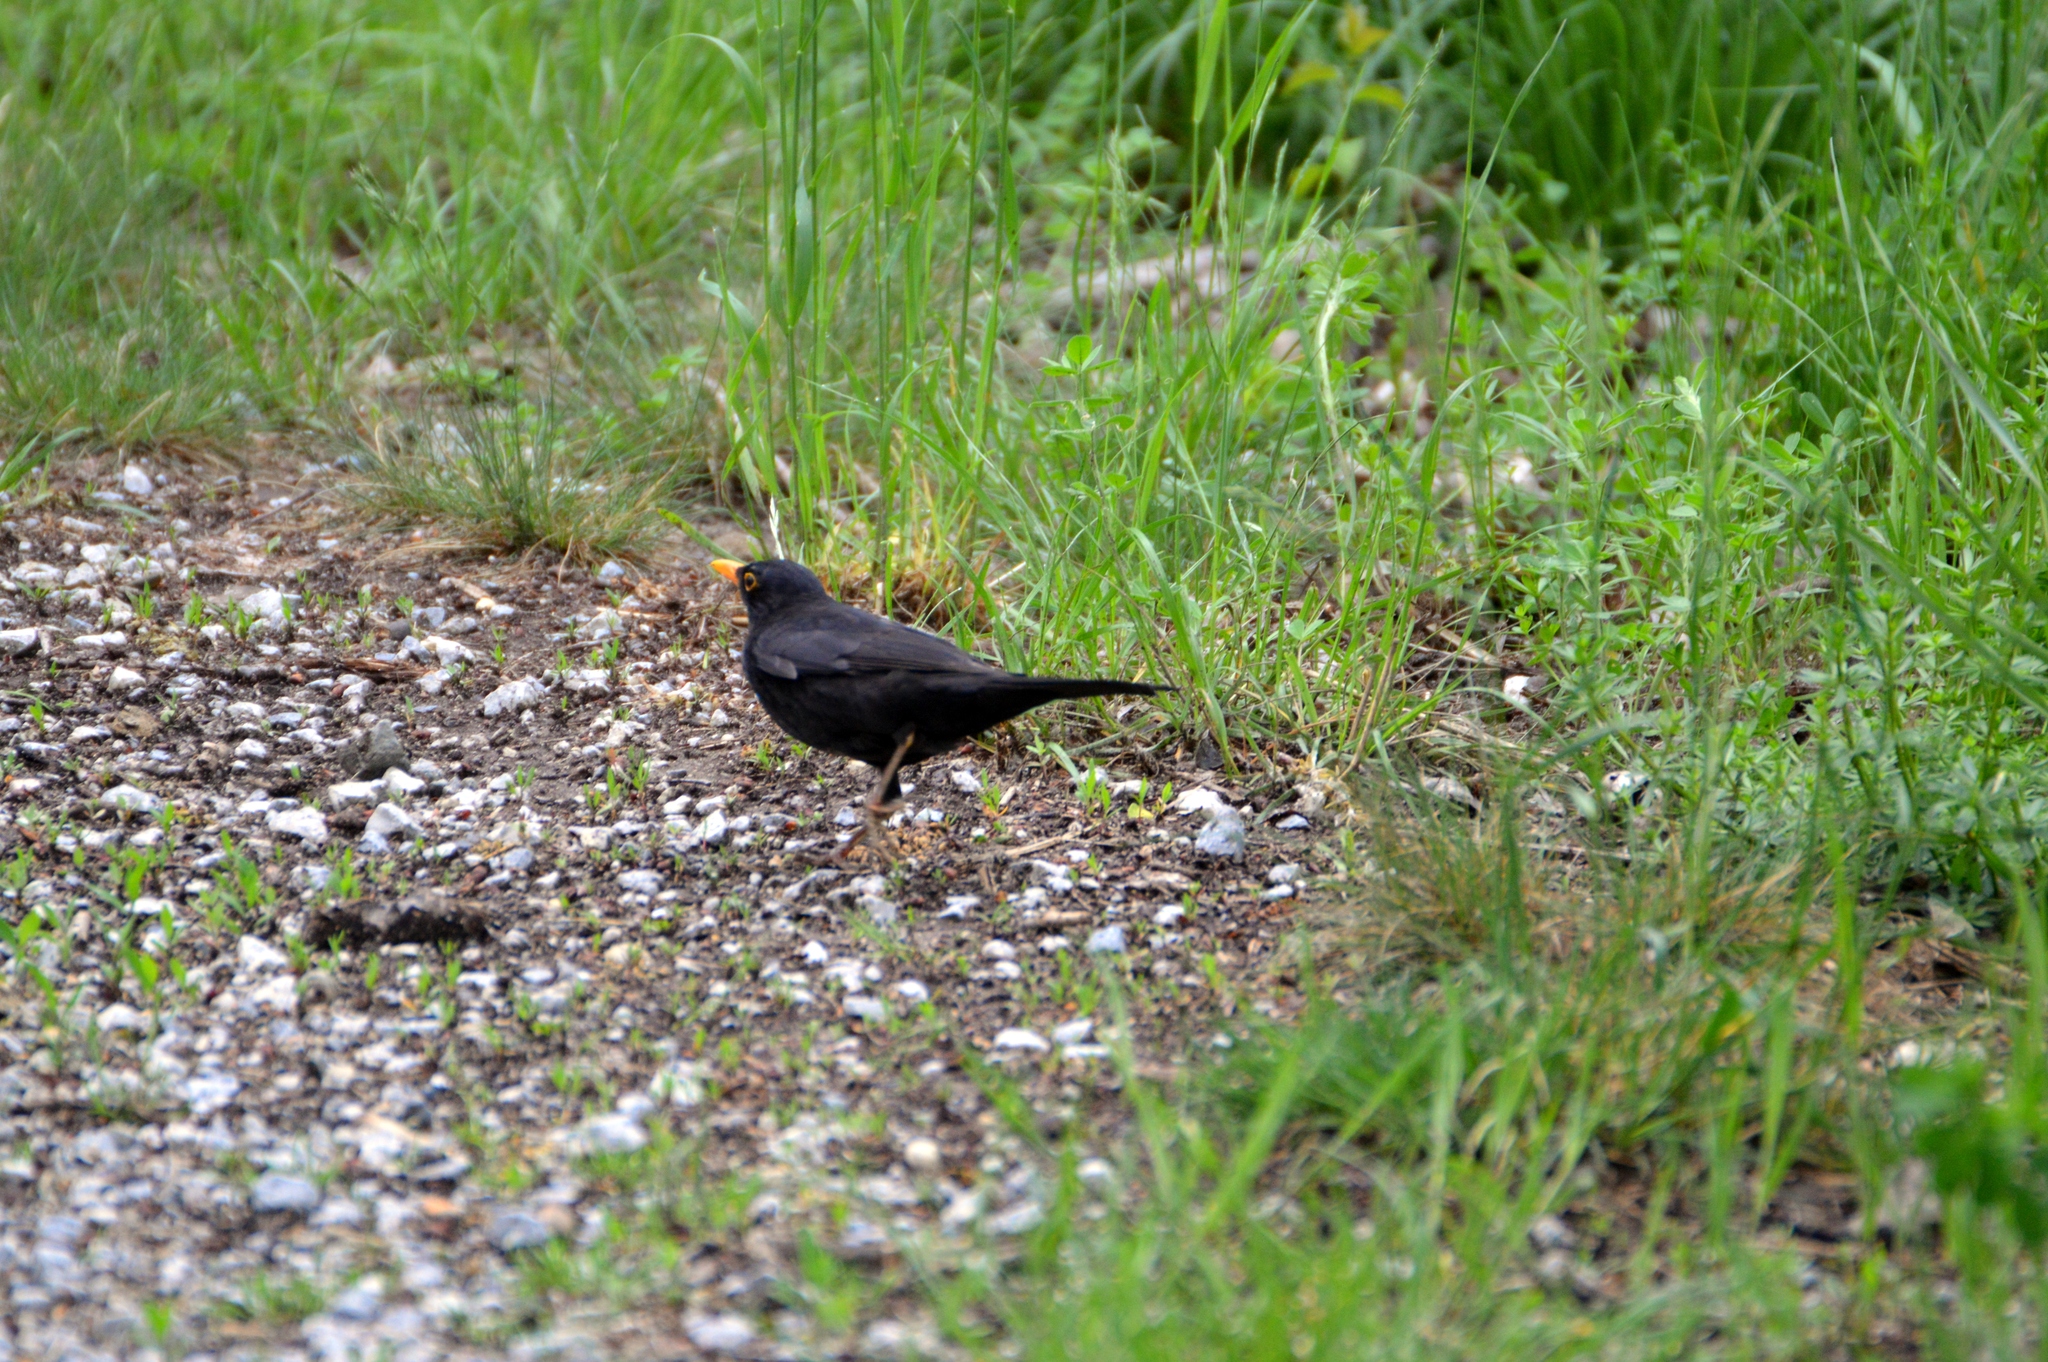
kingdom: Animalia
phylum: Chordata
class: Aves
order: Passeriformes
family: Turdidae
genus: Turdus
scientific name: Turdus merula
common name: Common blackbird
